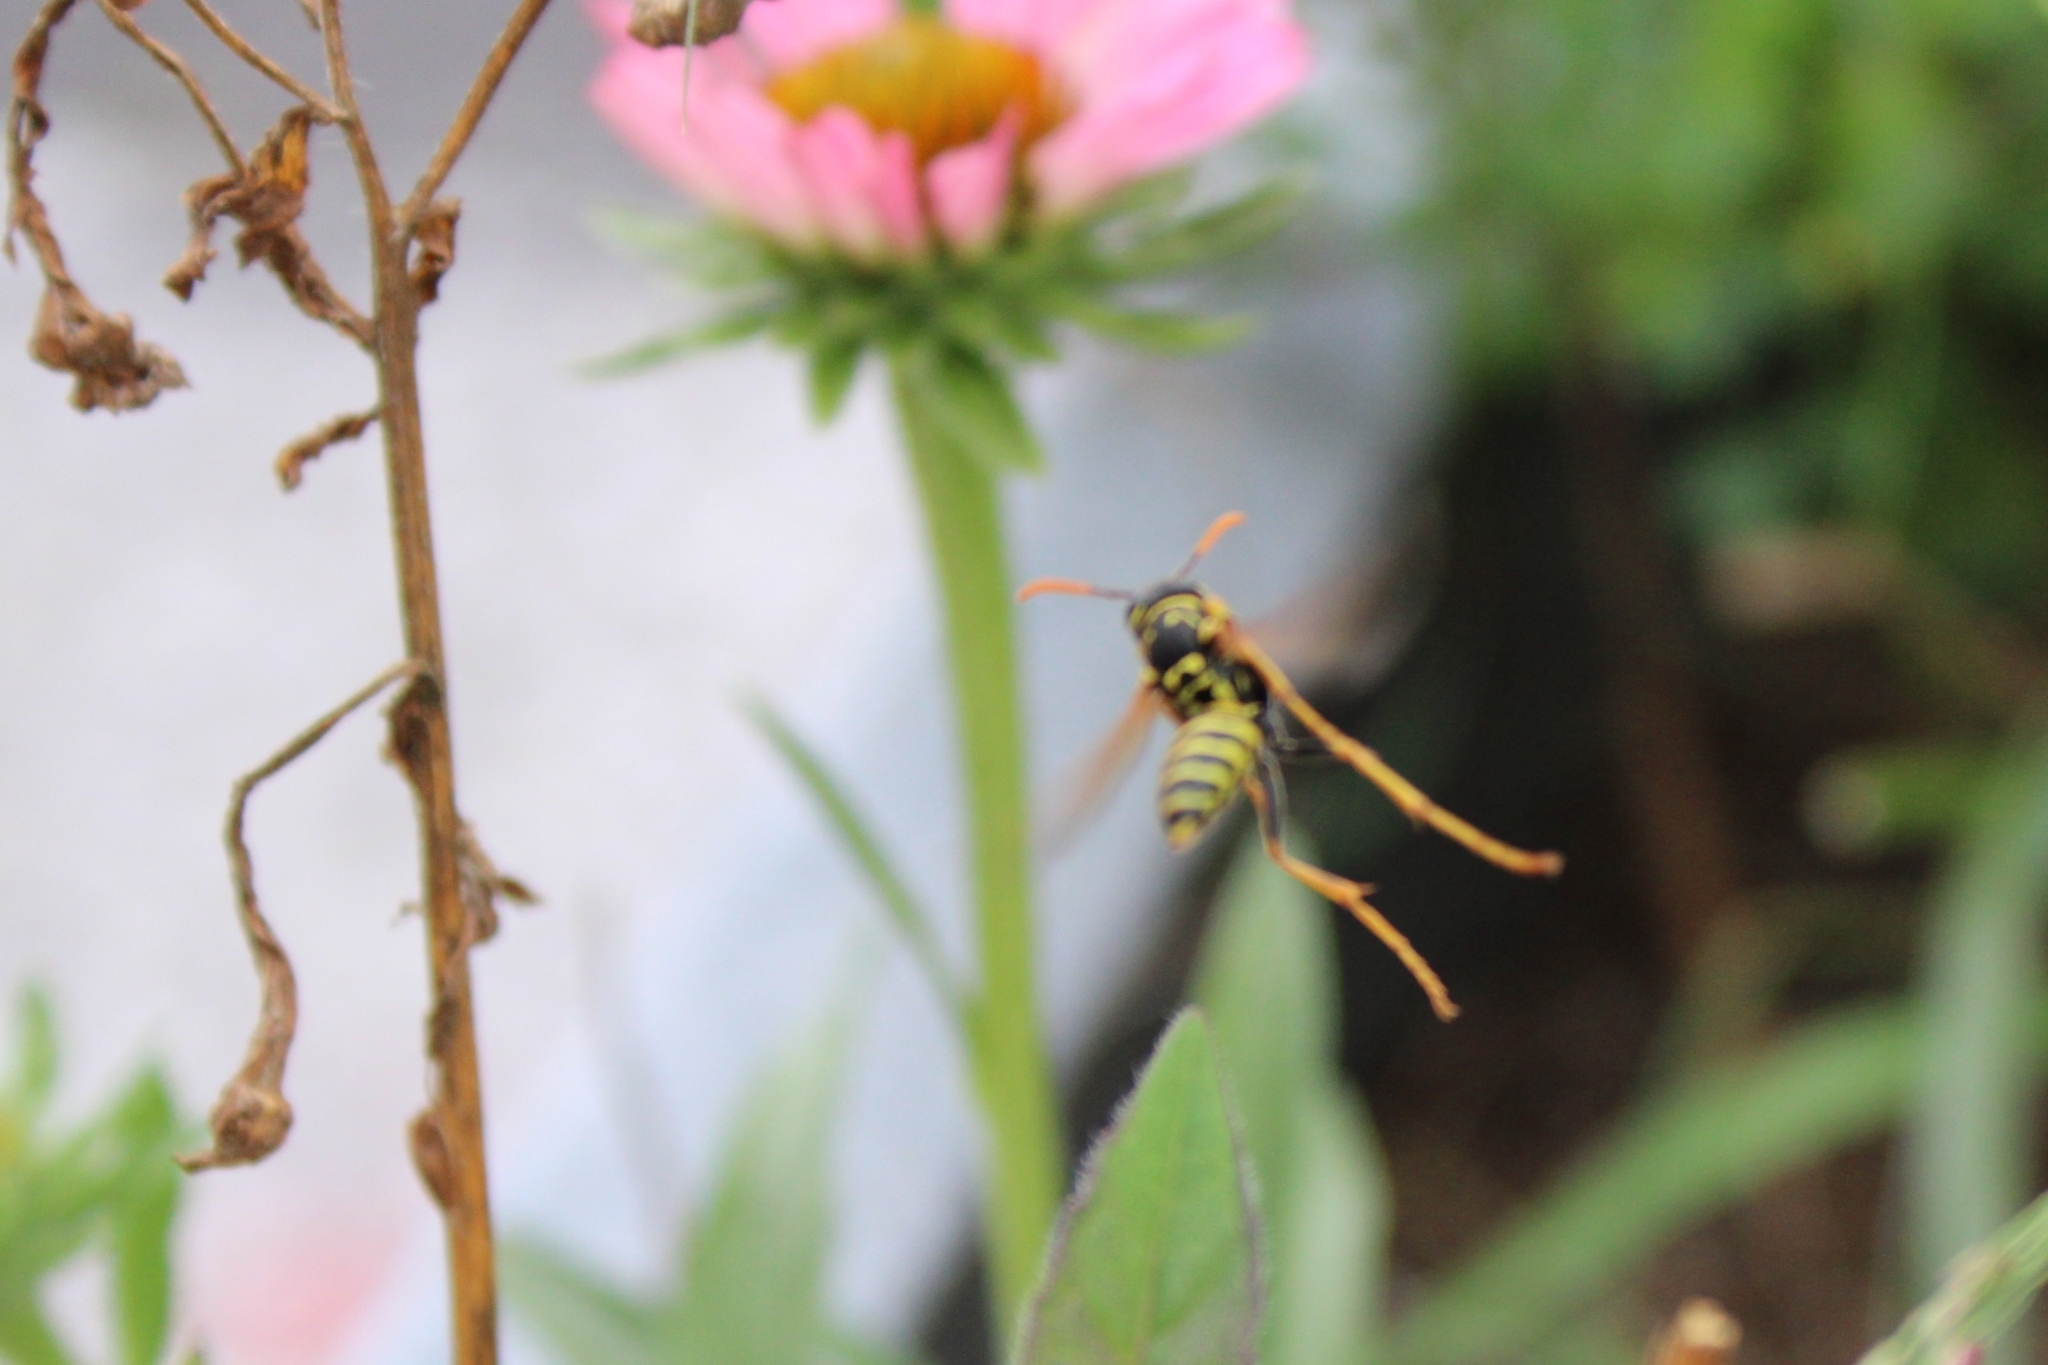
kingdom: Animalia
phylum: Arthropoda
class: Insecta
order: Hymenoptera
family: Eumenidae
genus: Polistes
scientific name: Polistes dominula
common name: Paper wasp
